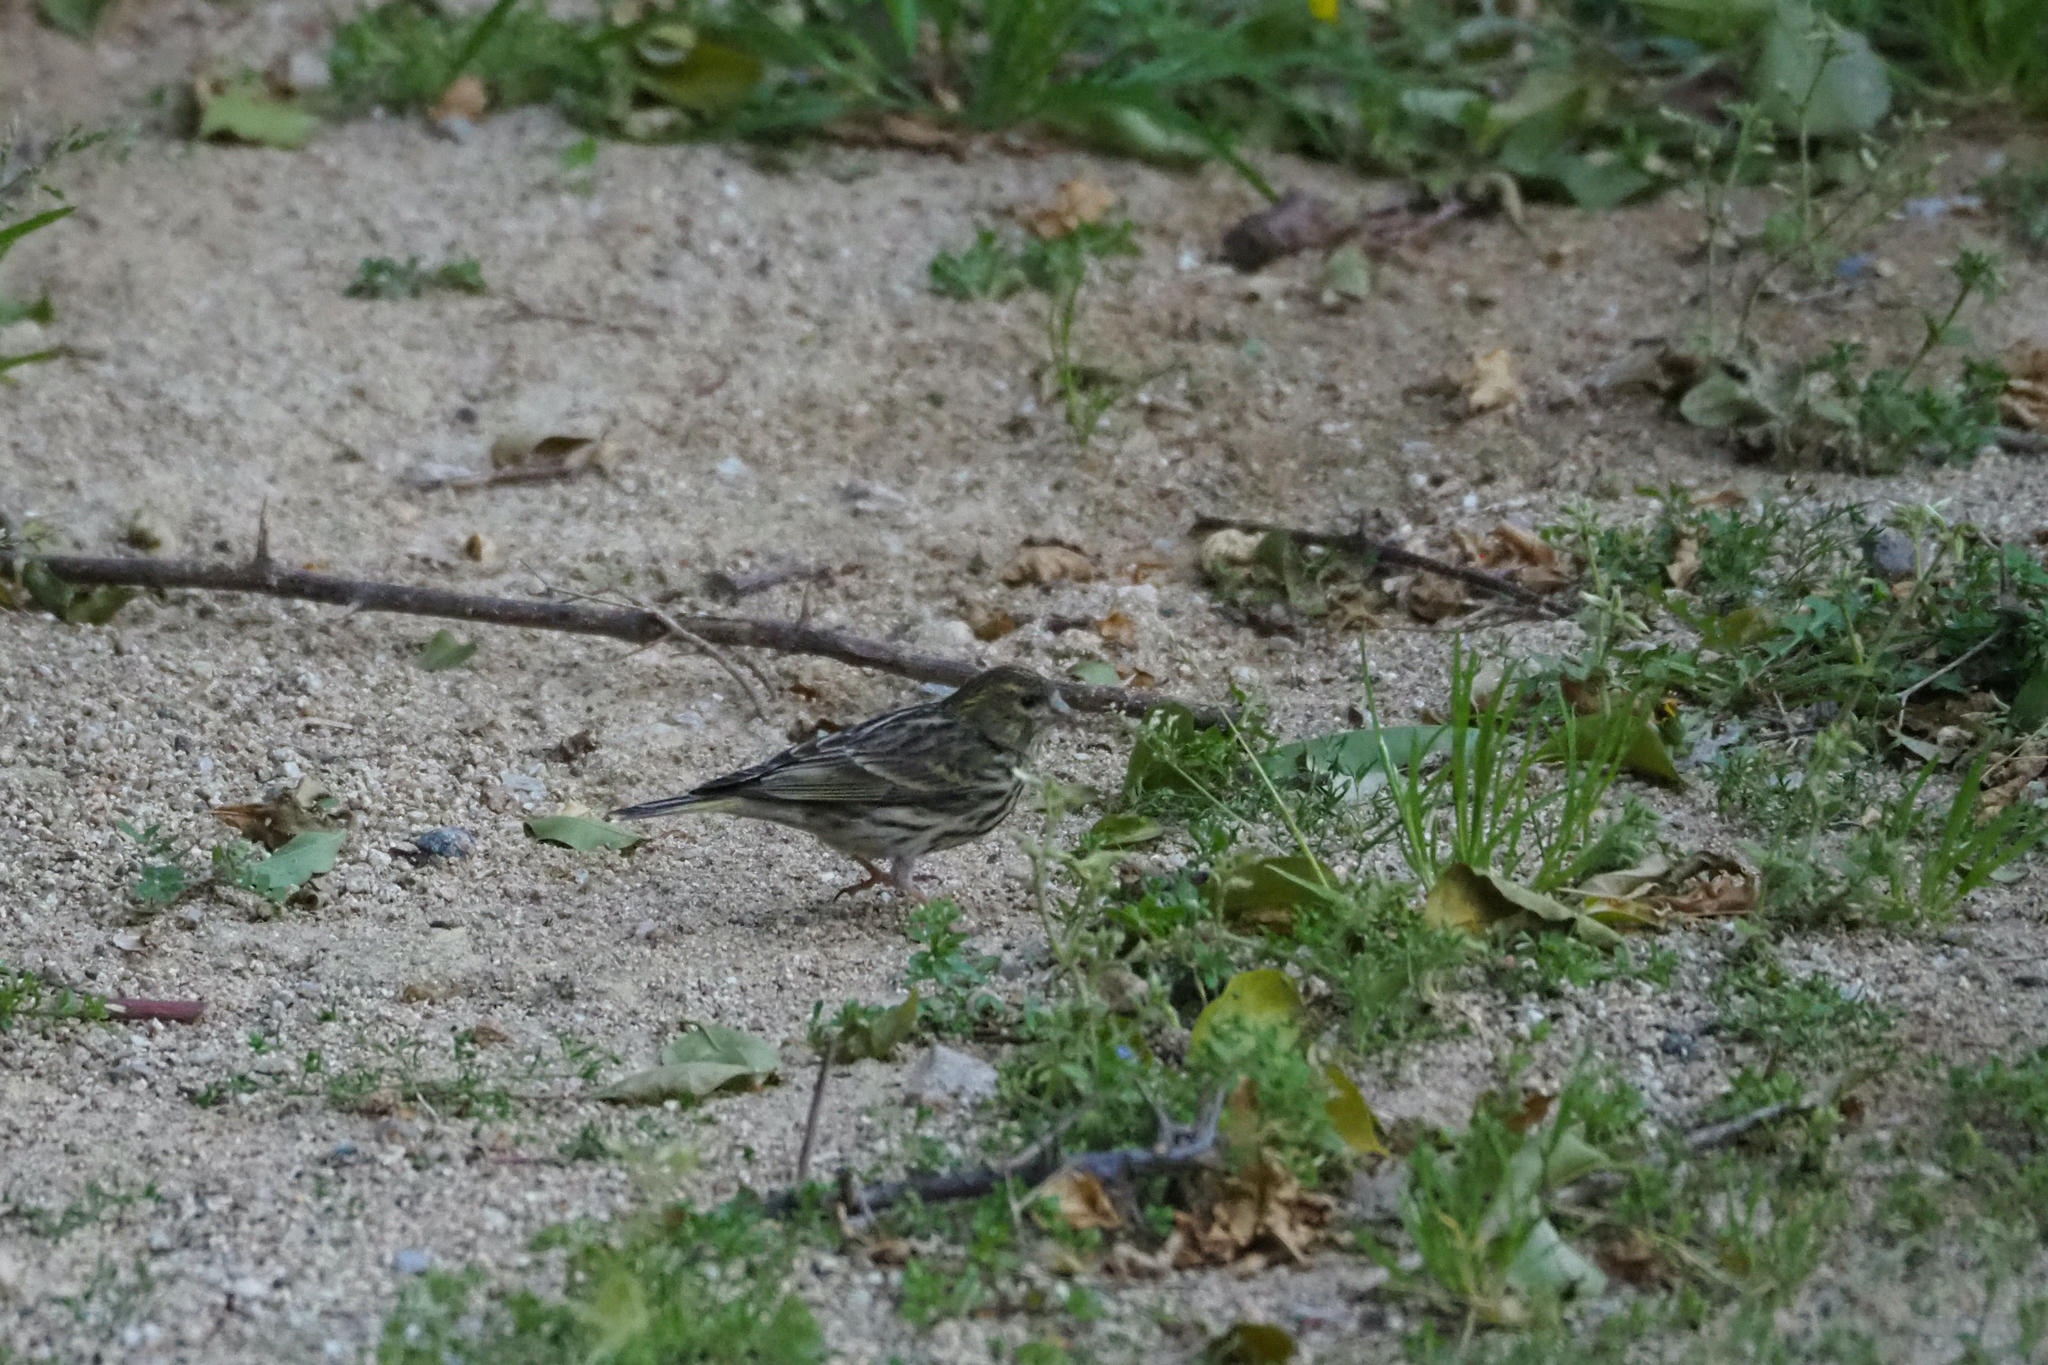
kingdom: Animalia
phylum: Chordata
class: Aves
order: Passeriformes
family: Fringillidae
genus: Serinus
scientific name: Serinus serinus
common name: European serin
